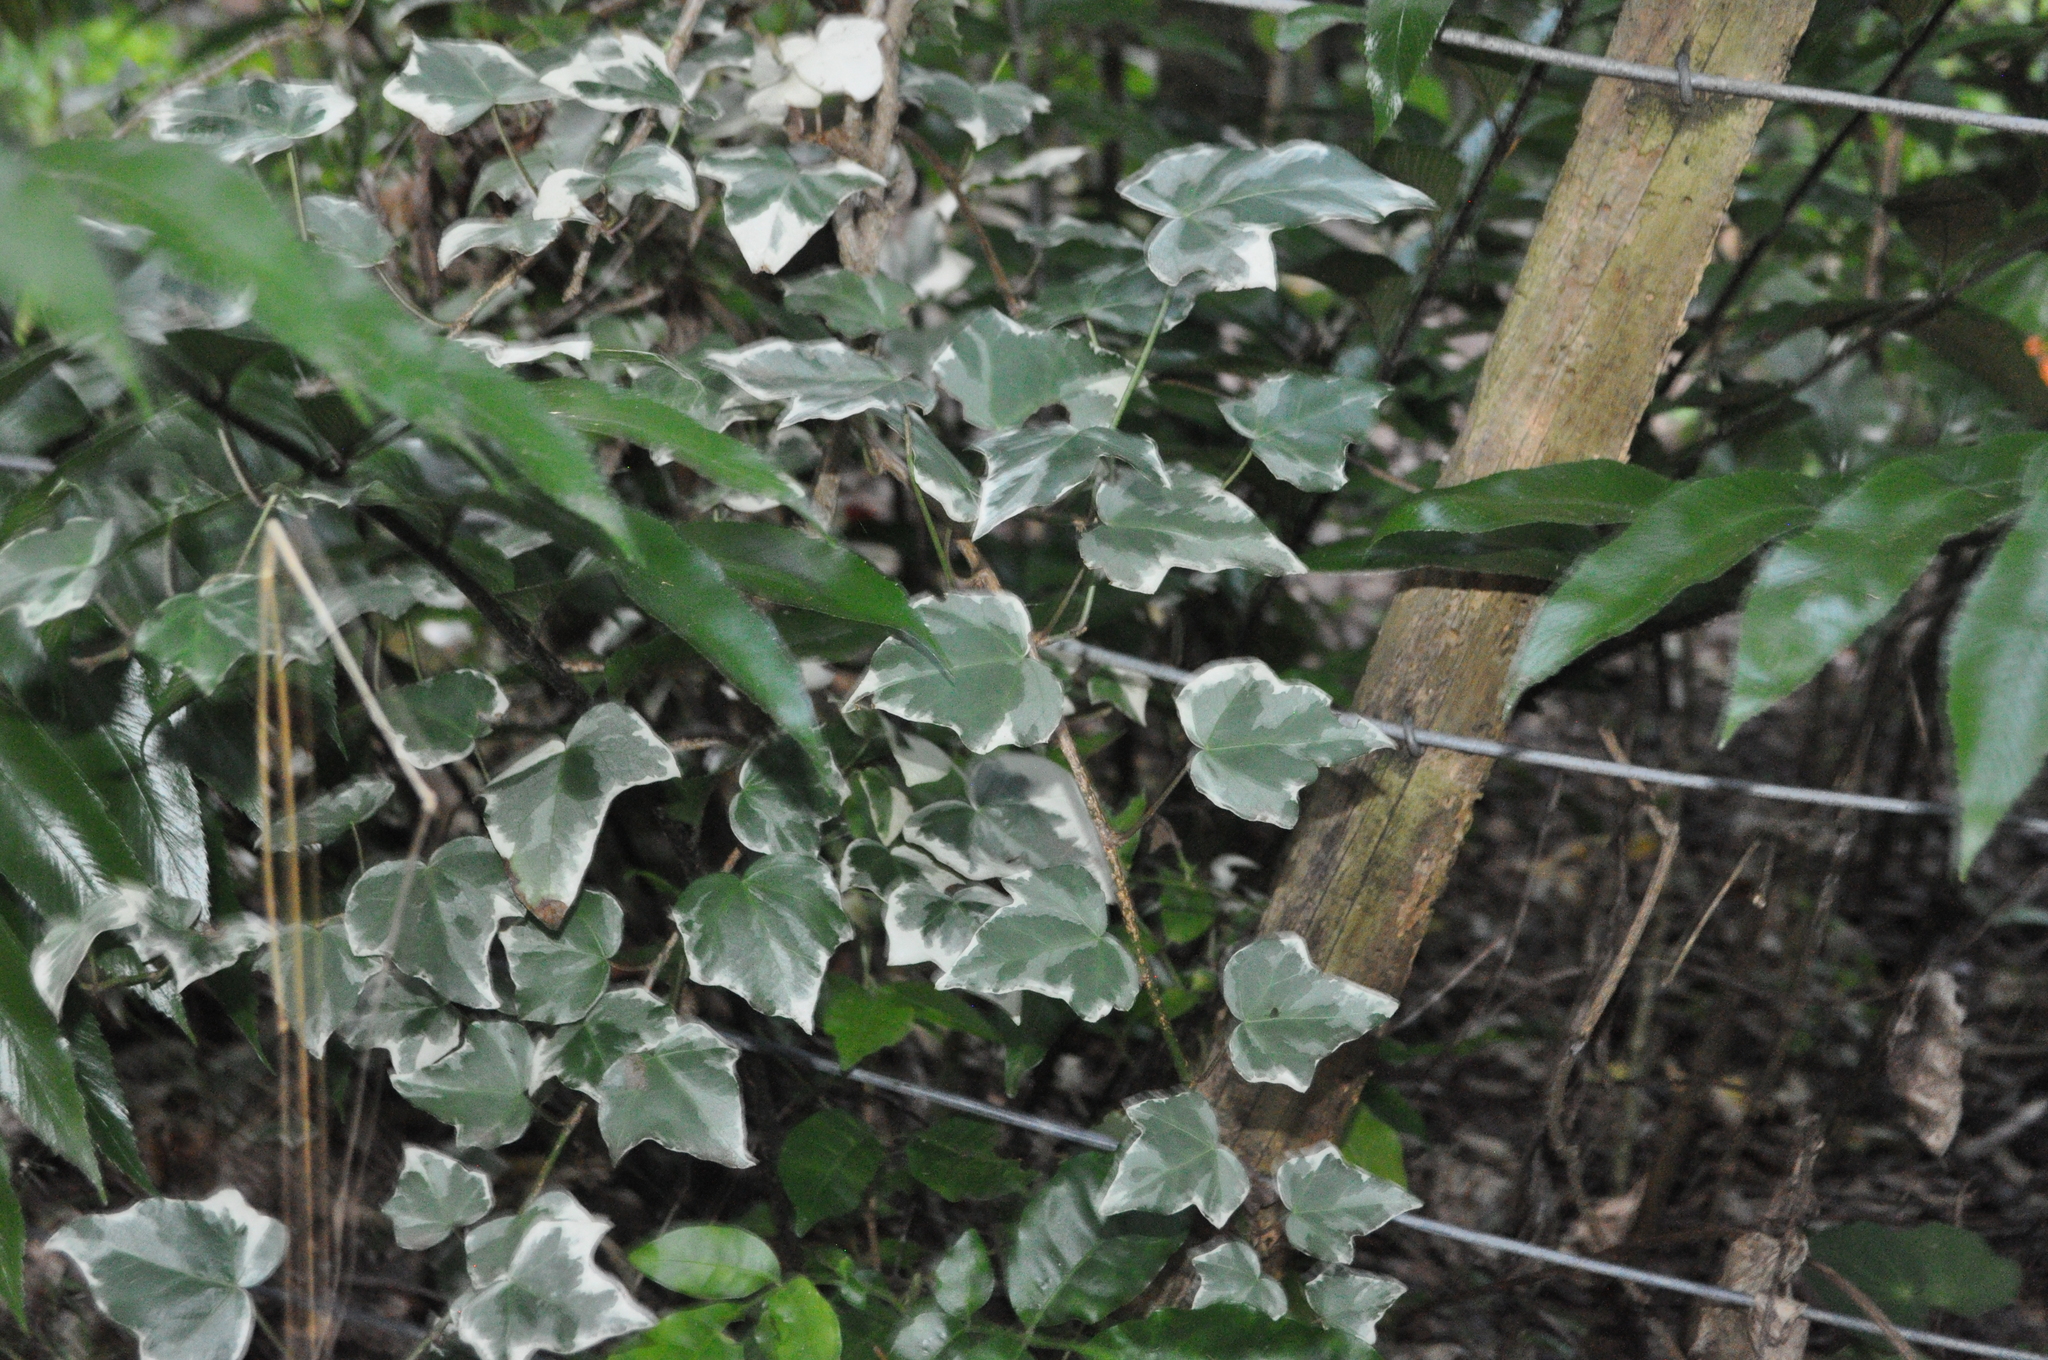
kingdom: Plantae
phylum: Tracheophyta
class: Magnoliopsida
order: Apiales
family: Araliaceae
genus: Hedera
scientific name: Hedera helix
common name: Ivy
